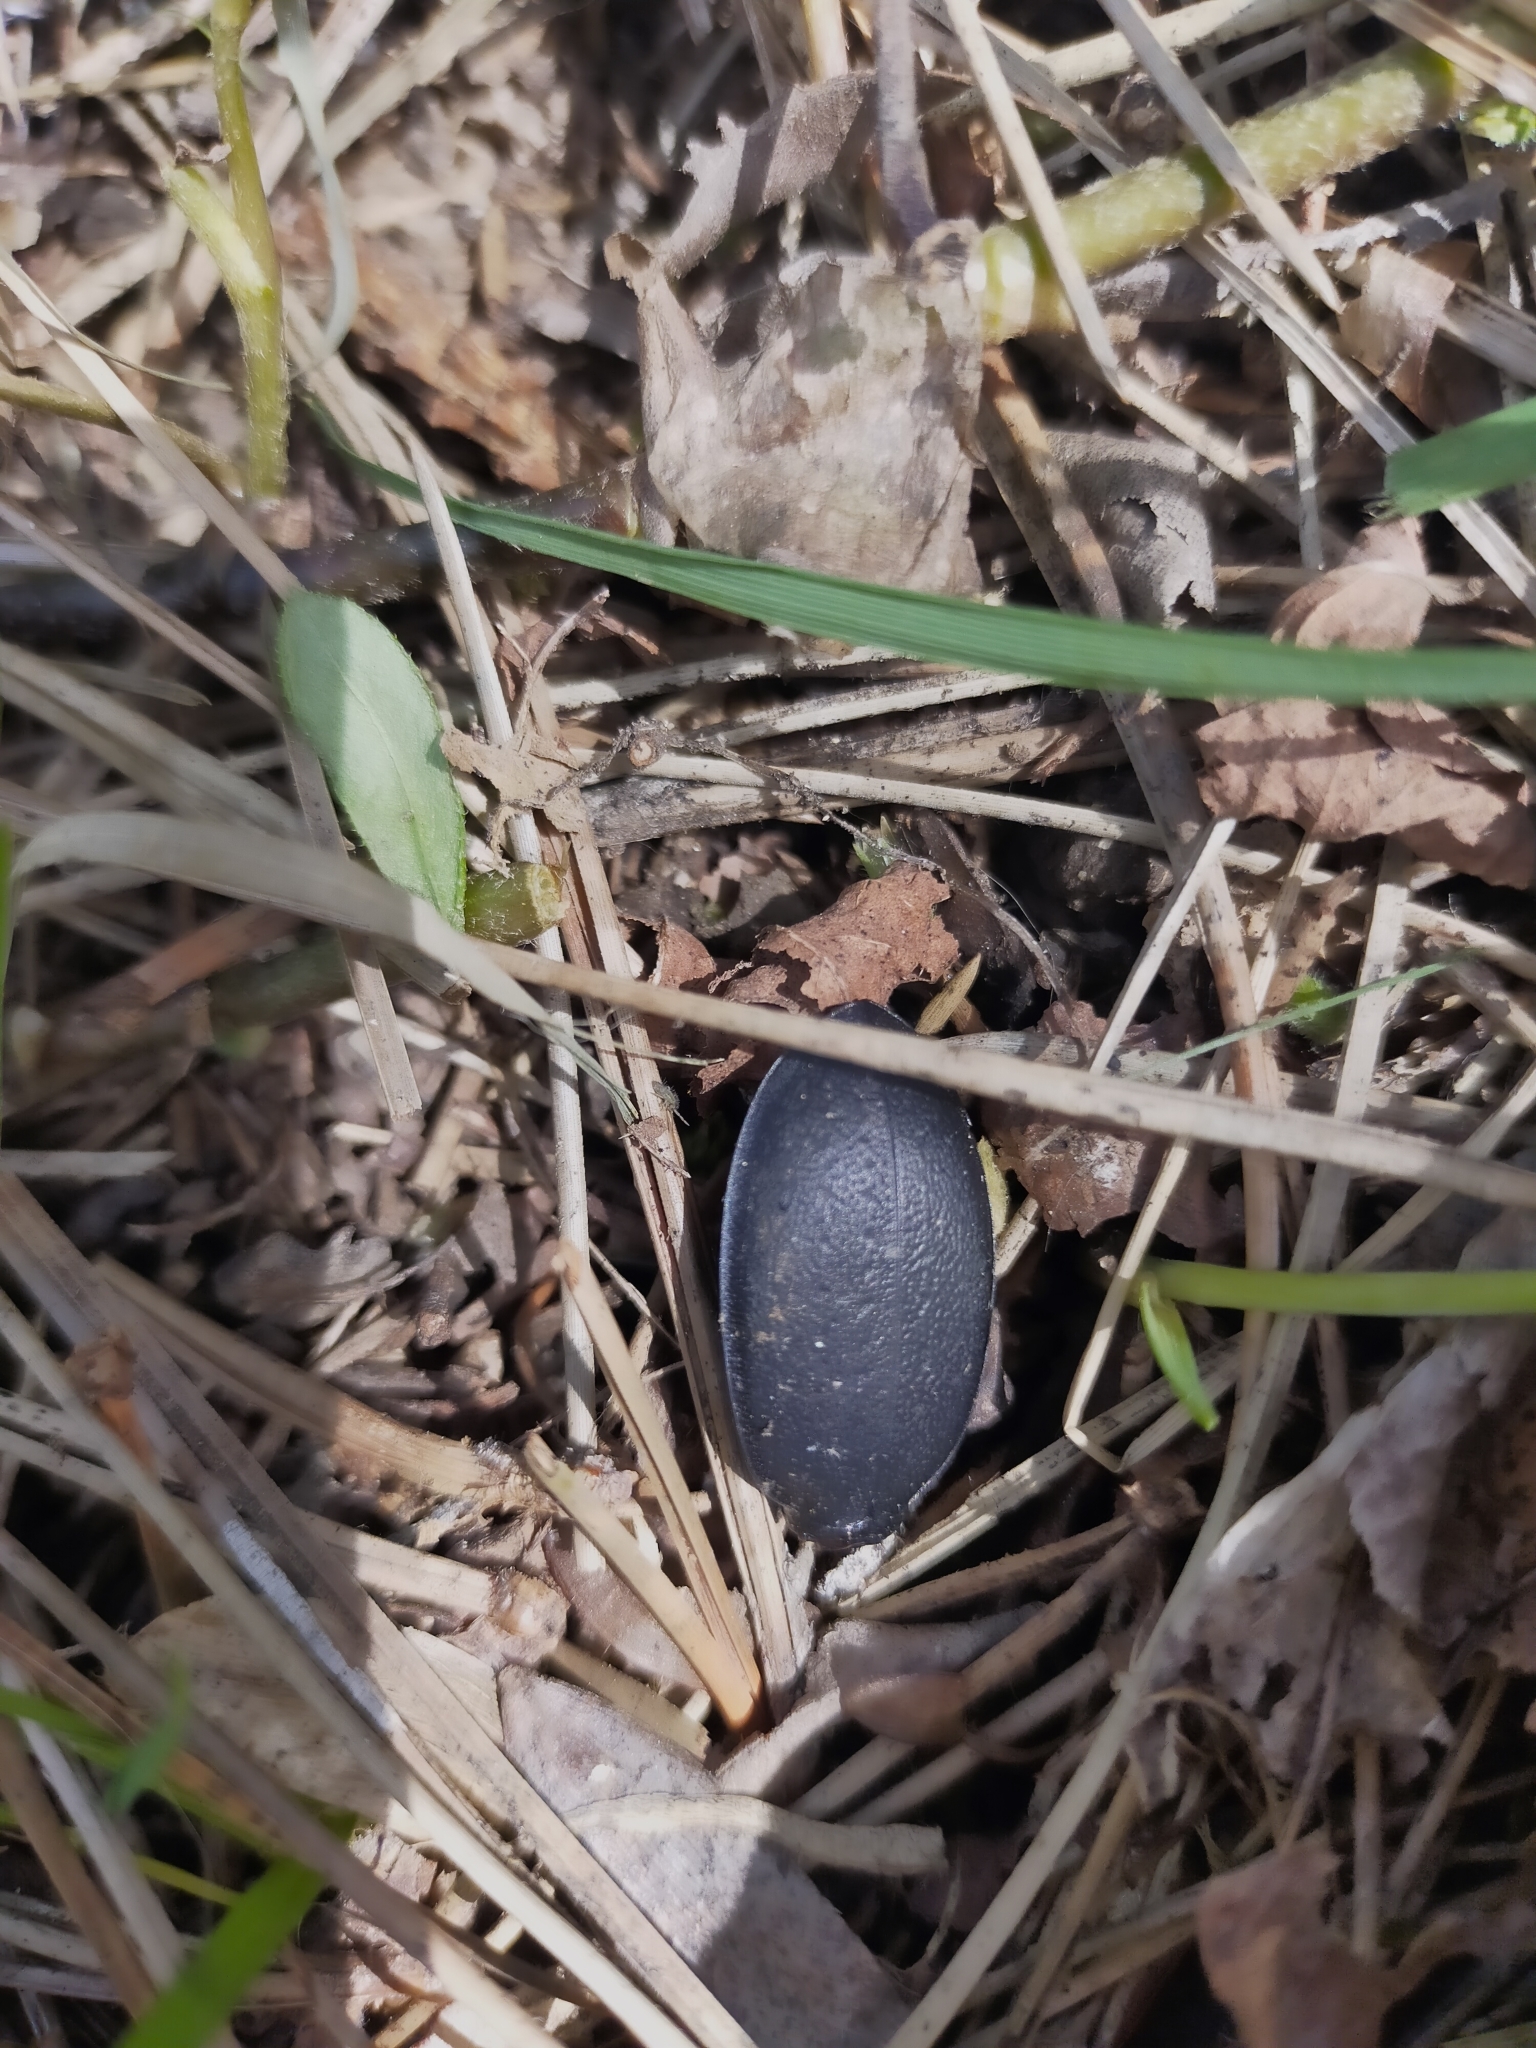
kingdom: Animalia
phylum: Arthropoda
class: Insecta
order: Coleoptera
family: Carabidae
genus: Carabus
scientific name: Carabus coriaceus
